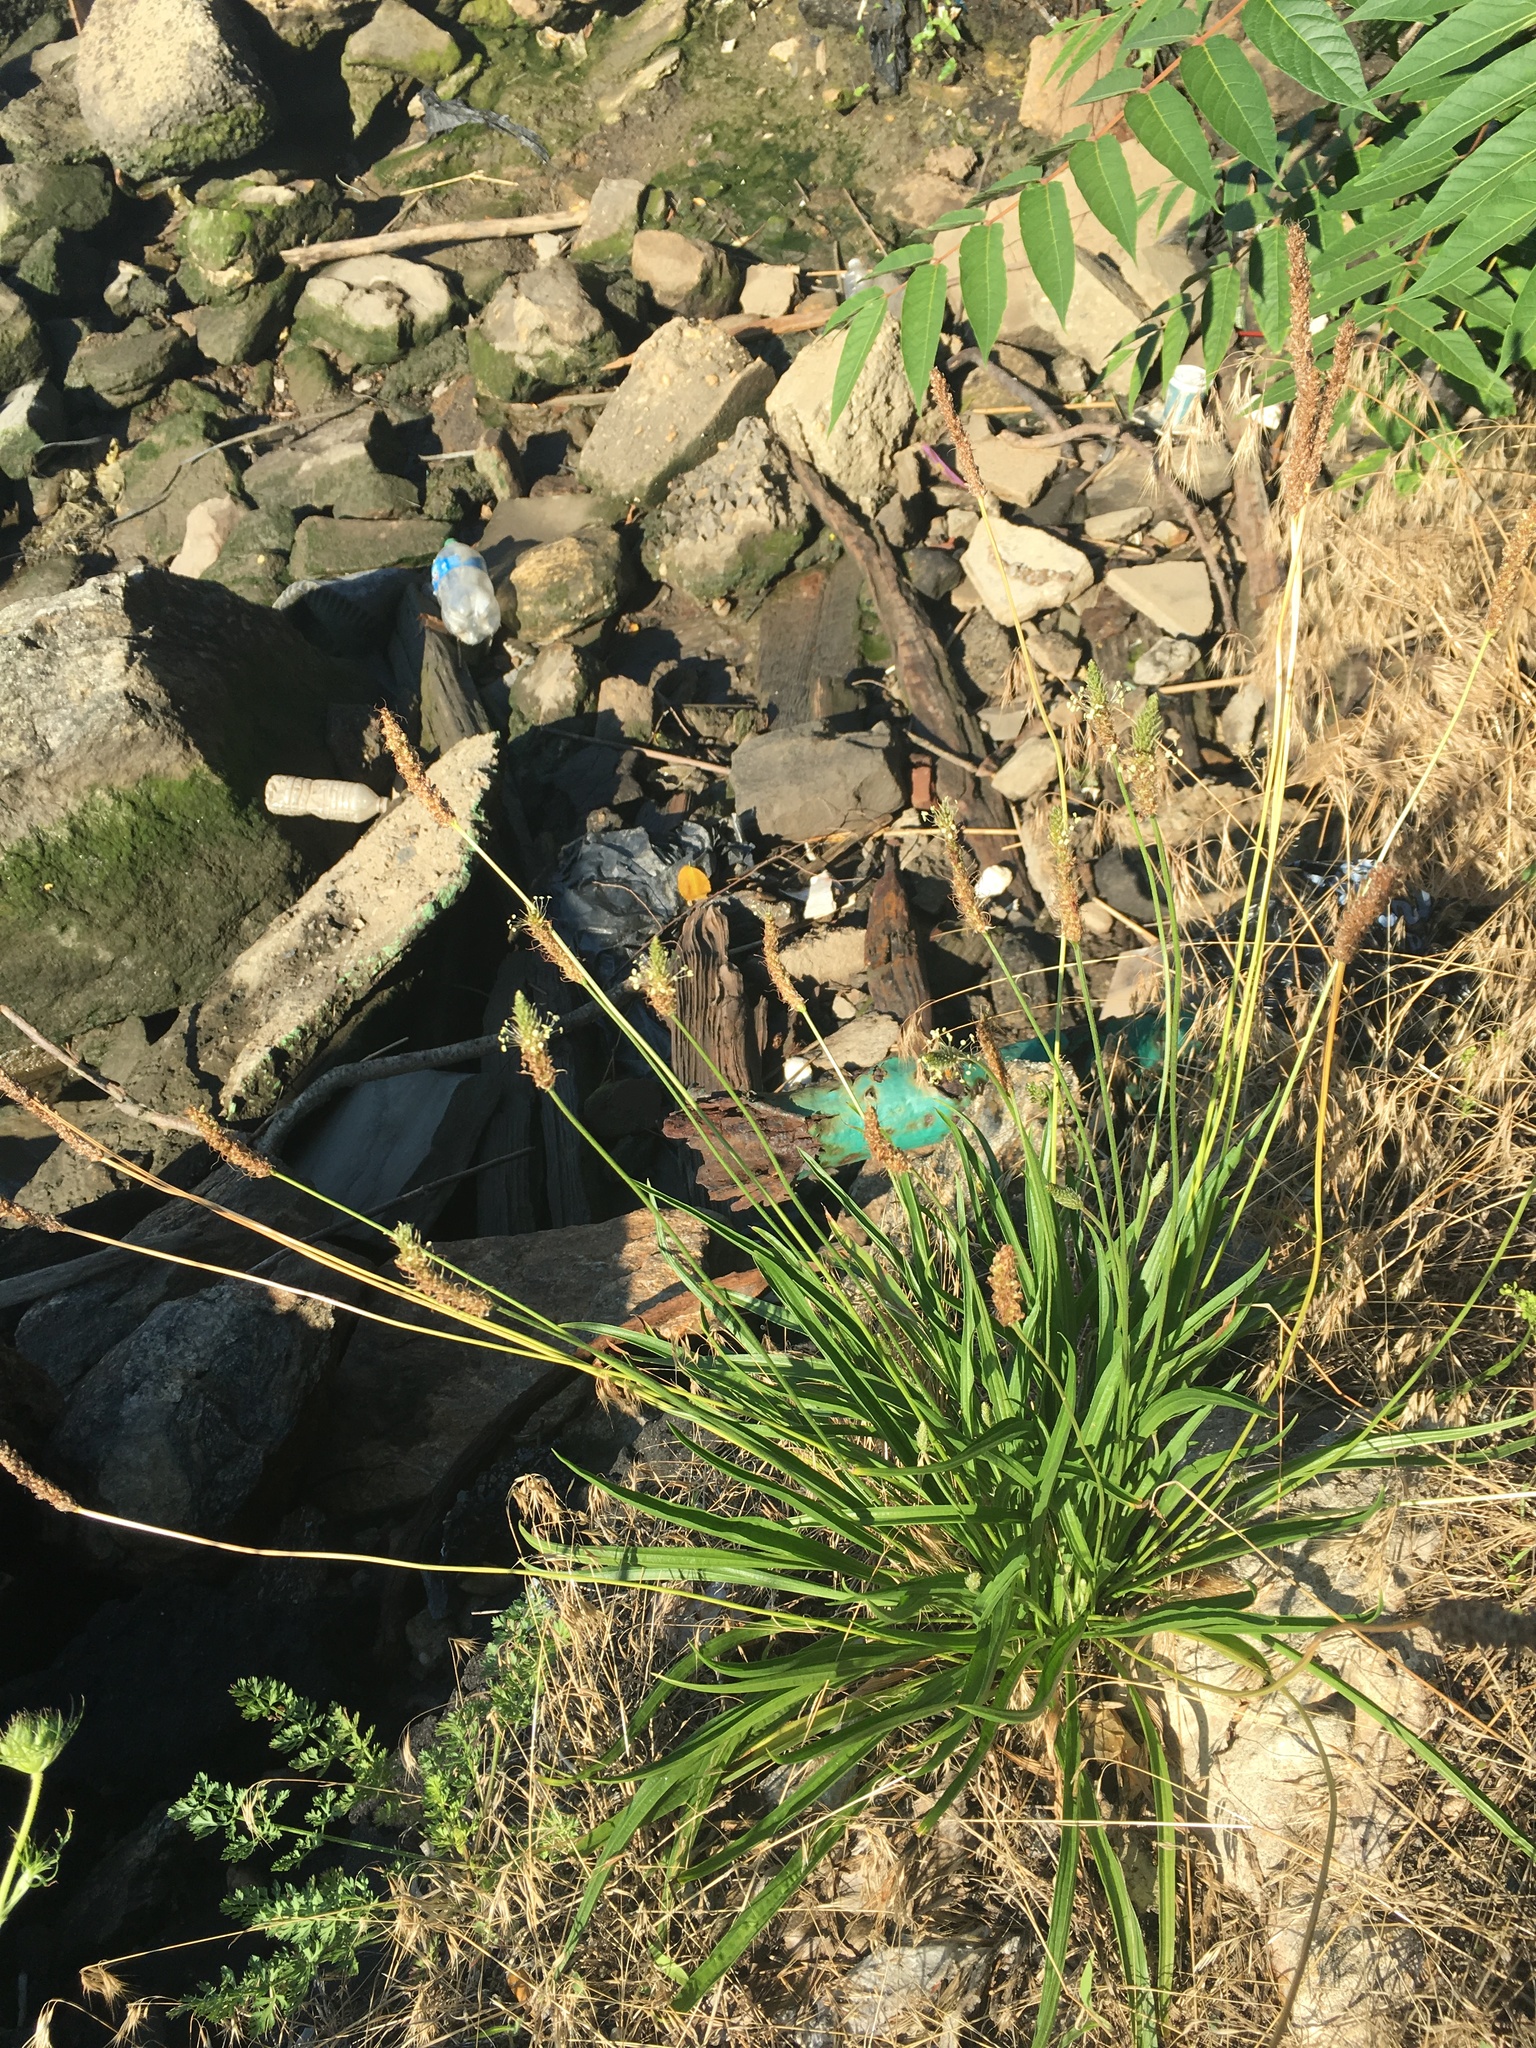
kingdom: Plantae
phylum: Tracheophyta
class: Magnoliopsida
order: Lamiales
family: Plantaginaceae
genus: Plantago
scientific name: Plantago lanceolata
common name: Ribwort plantain
